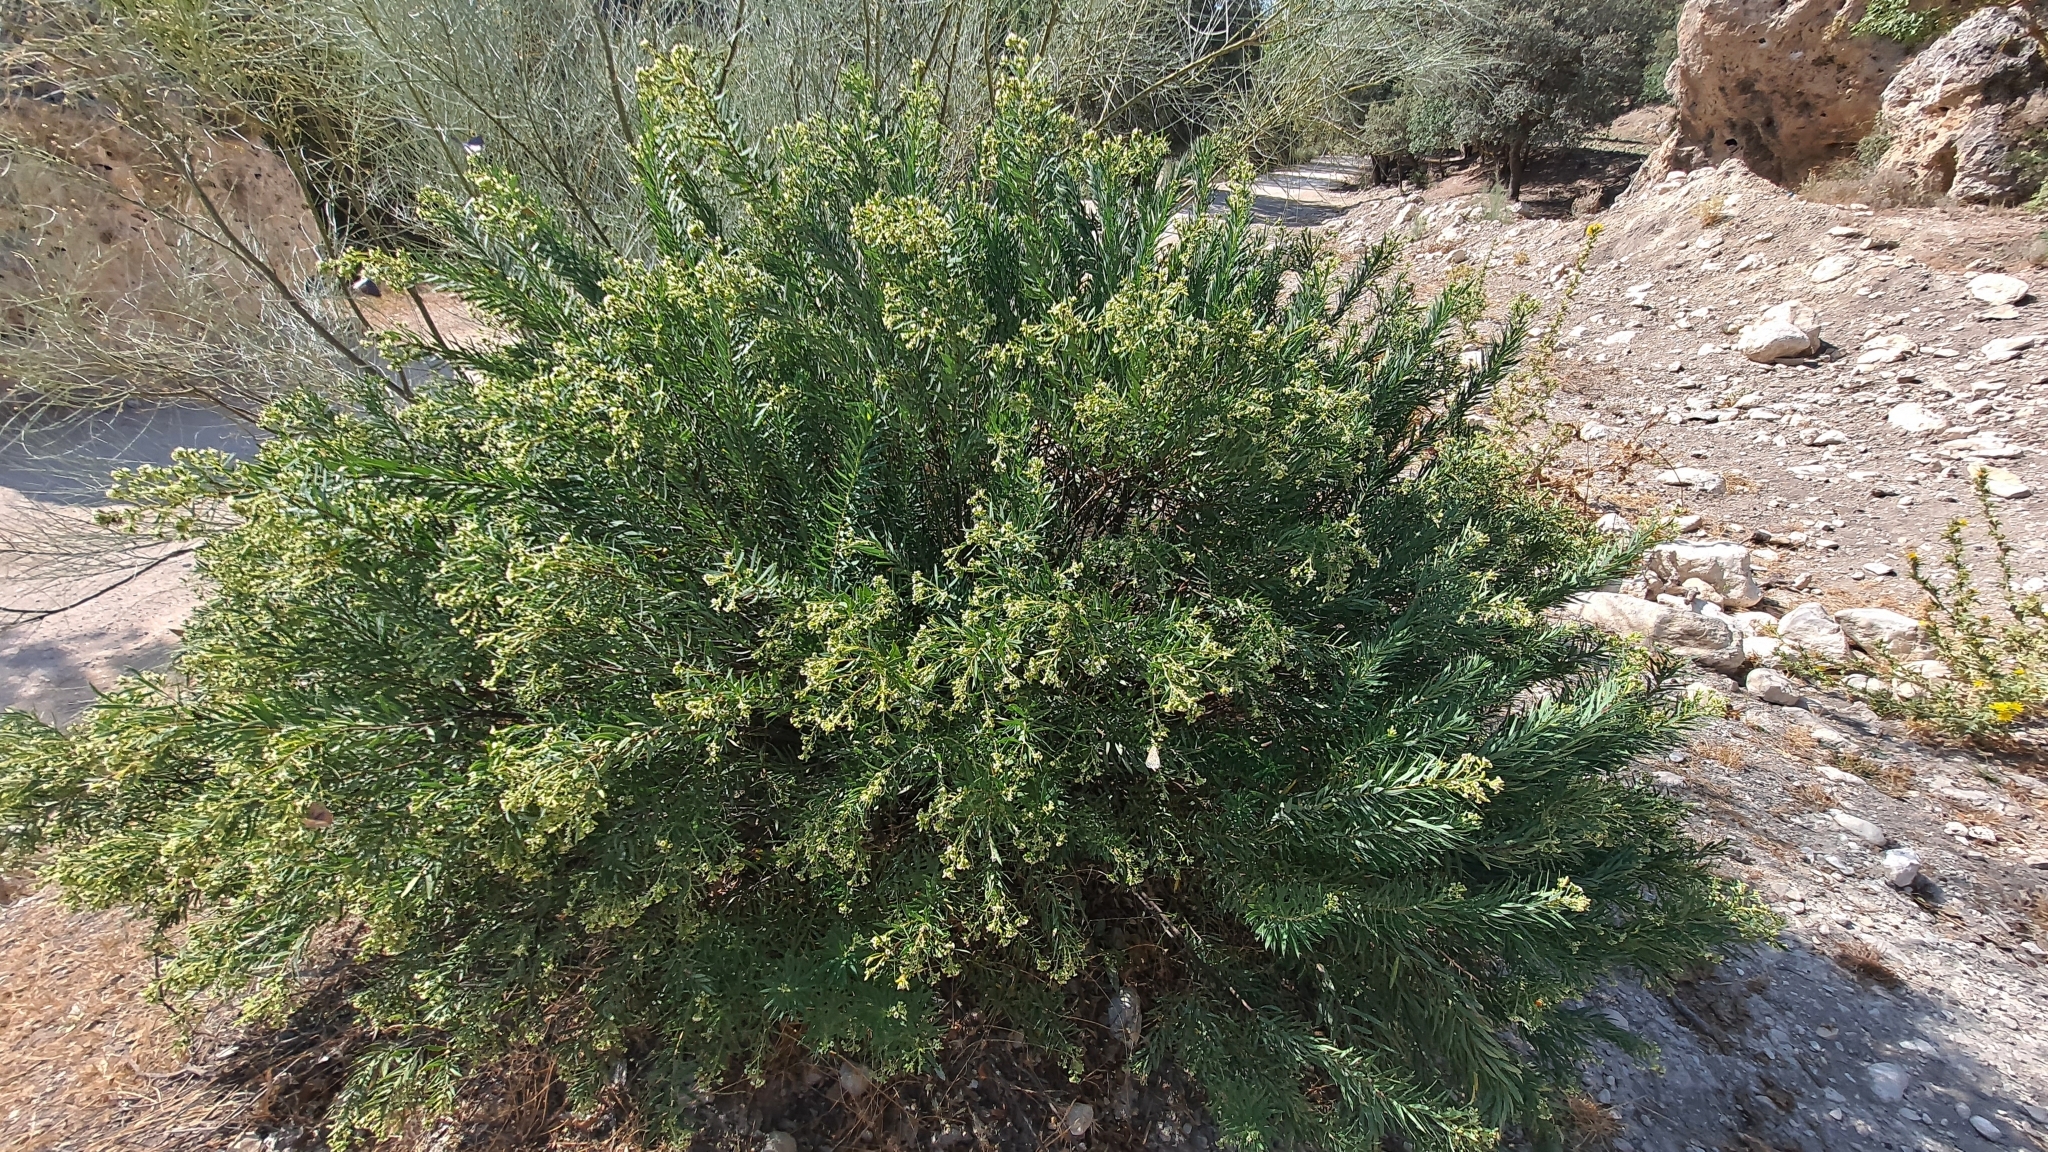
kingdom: Plantae
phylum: Tracheophyta
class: Magnoliopsida
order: Malvales
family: Thymelaeaceae
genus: Daphne
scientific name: Daphne gnidium
